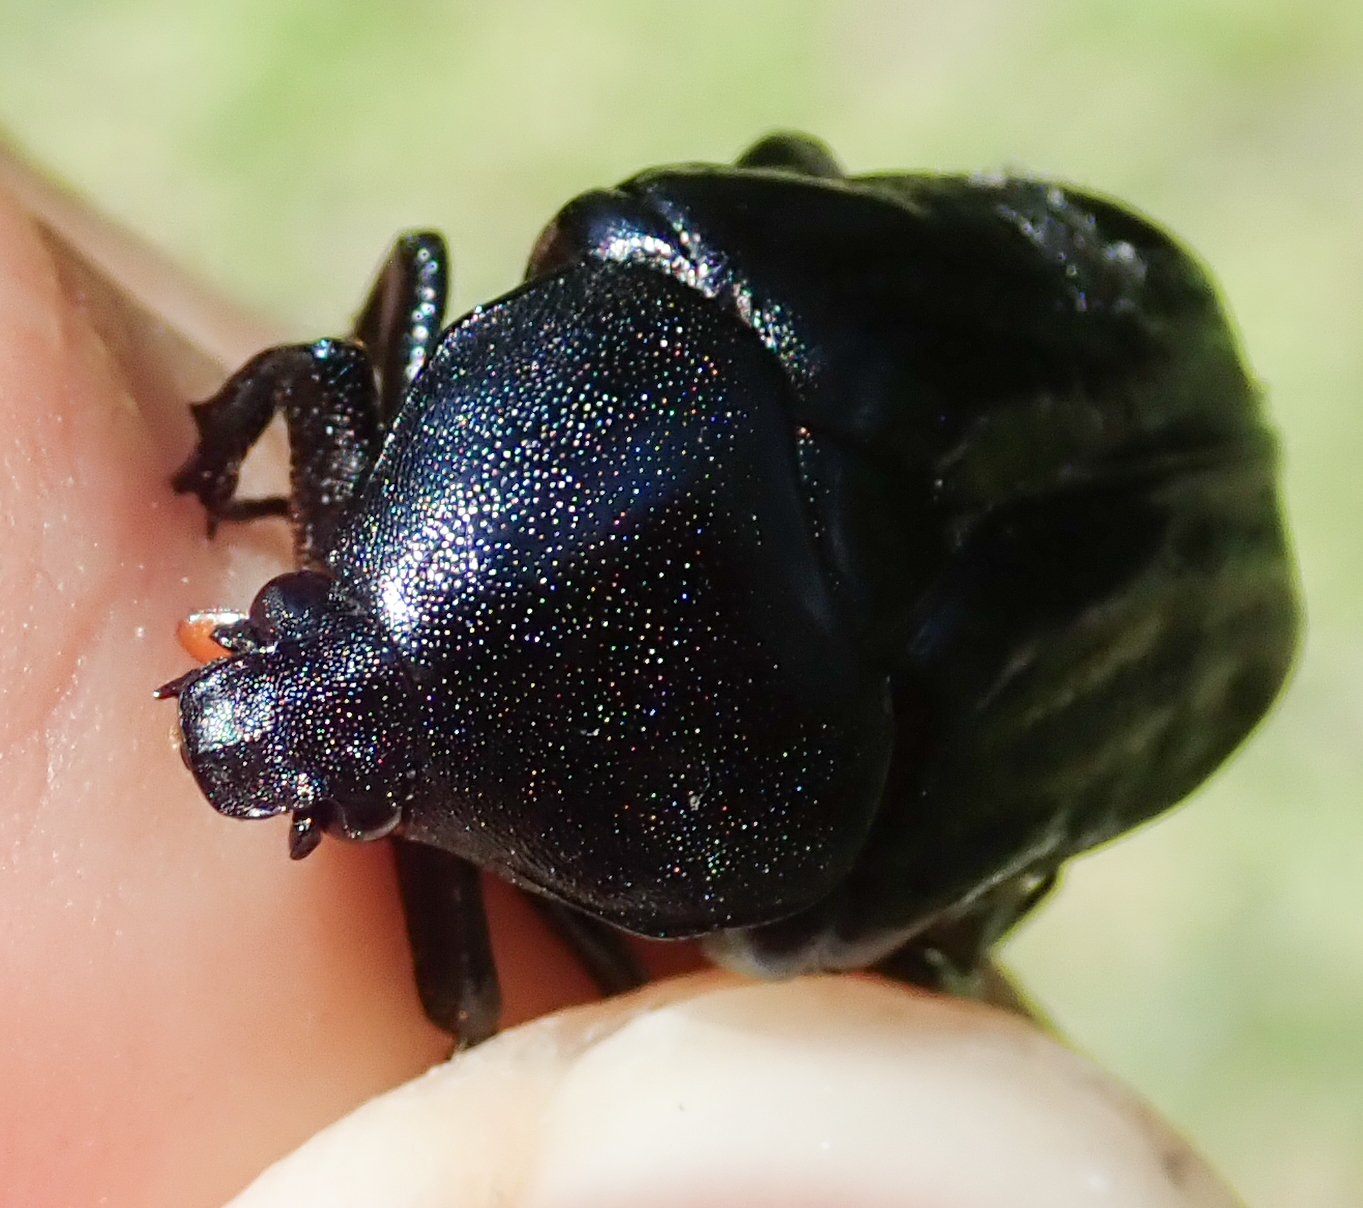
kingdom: Animalia
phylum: Arthropoda
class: Insecta
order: Coleoptera
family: Scarabaeidae
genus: Oplostomus
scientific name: Oplostomus fuligineus
